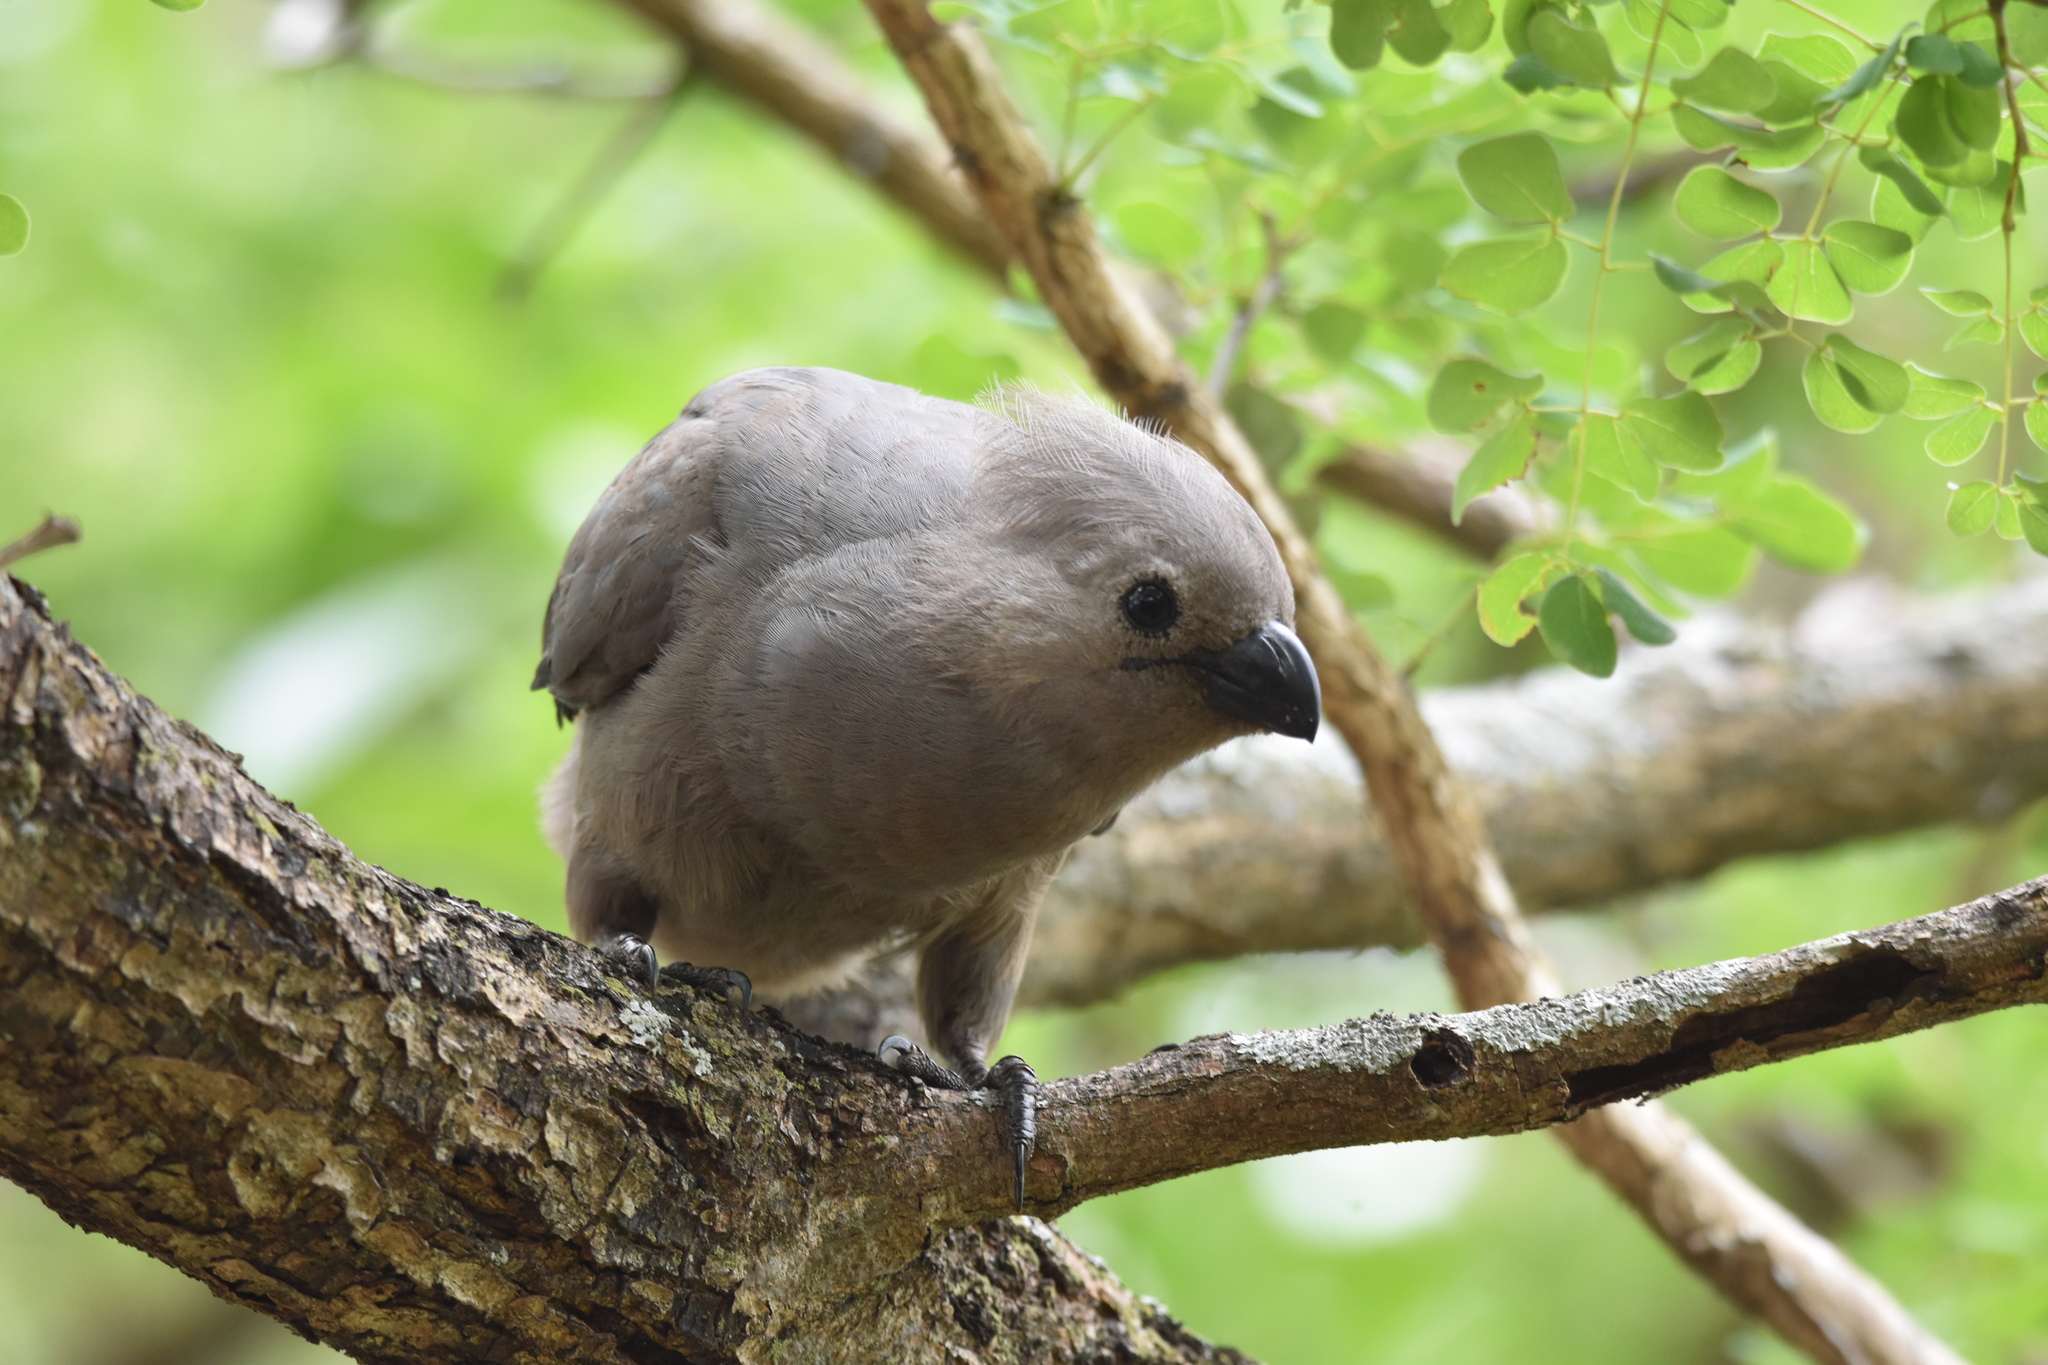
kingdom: Animalia
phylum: Chordata
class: Aves
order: Musophagiformes
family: Musophagidae
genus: Corythaixoides
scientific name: Corythaixoides concolor
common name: Grey go-away-bird
